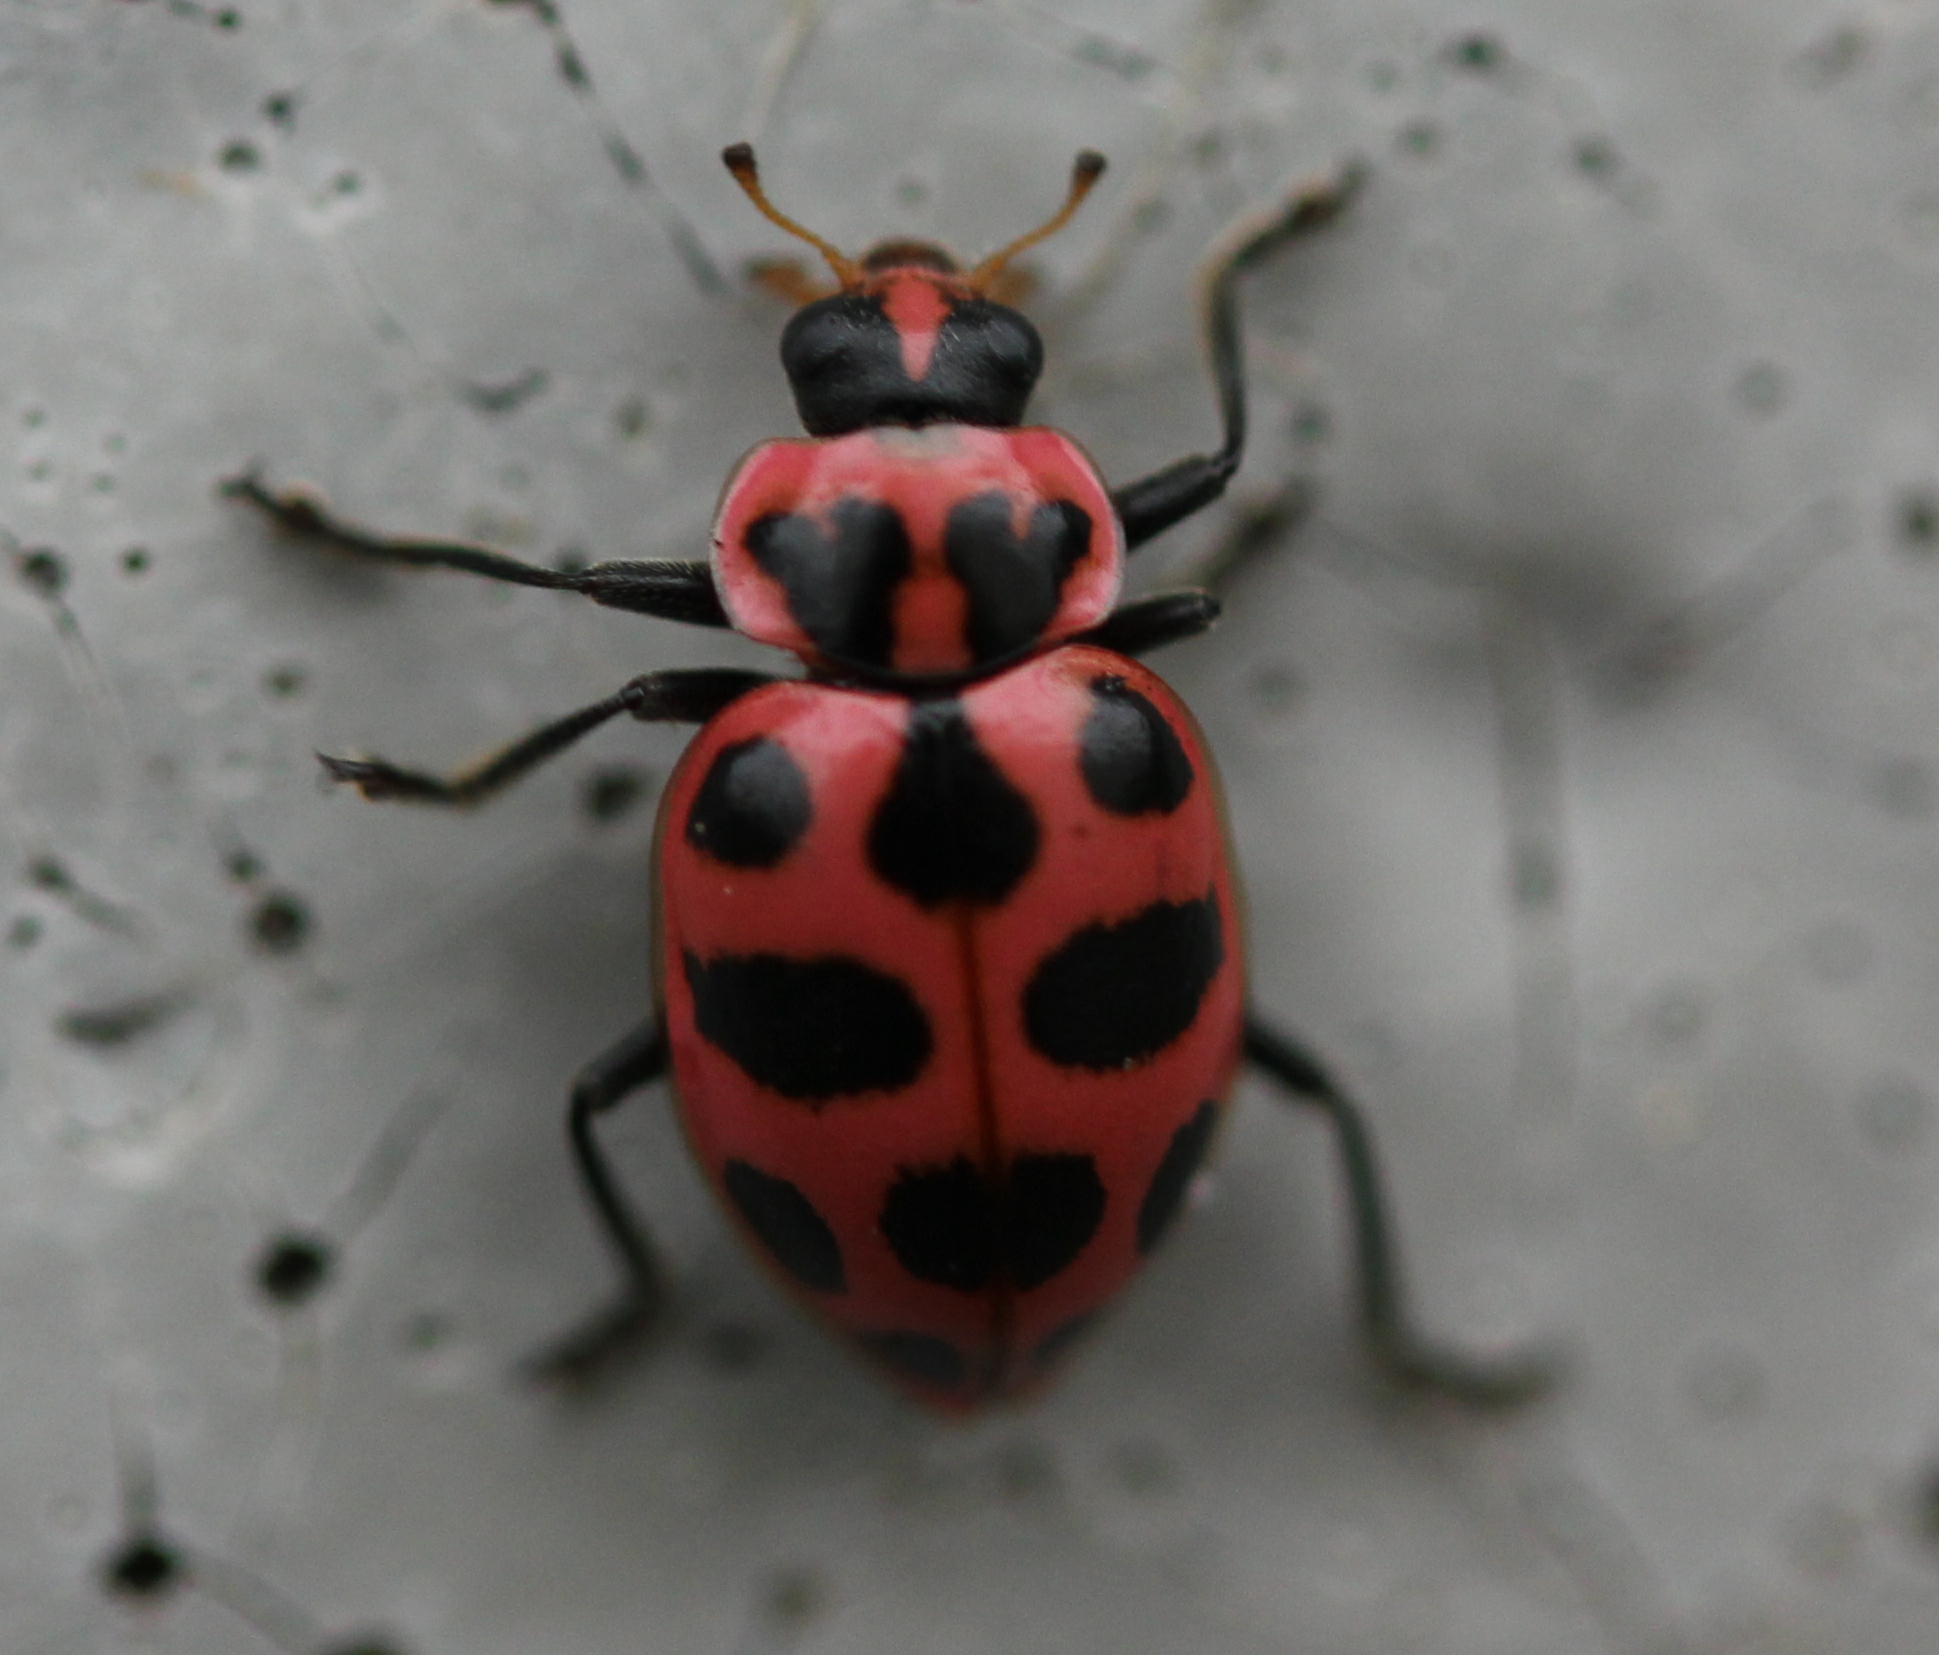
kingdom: Animalia
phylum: Arthropoda
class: Insecta
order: Coleoptera
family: Coccinellidae
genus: Coleomegilla
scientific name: Coleomegilla maculata
